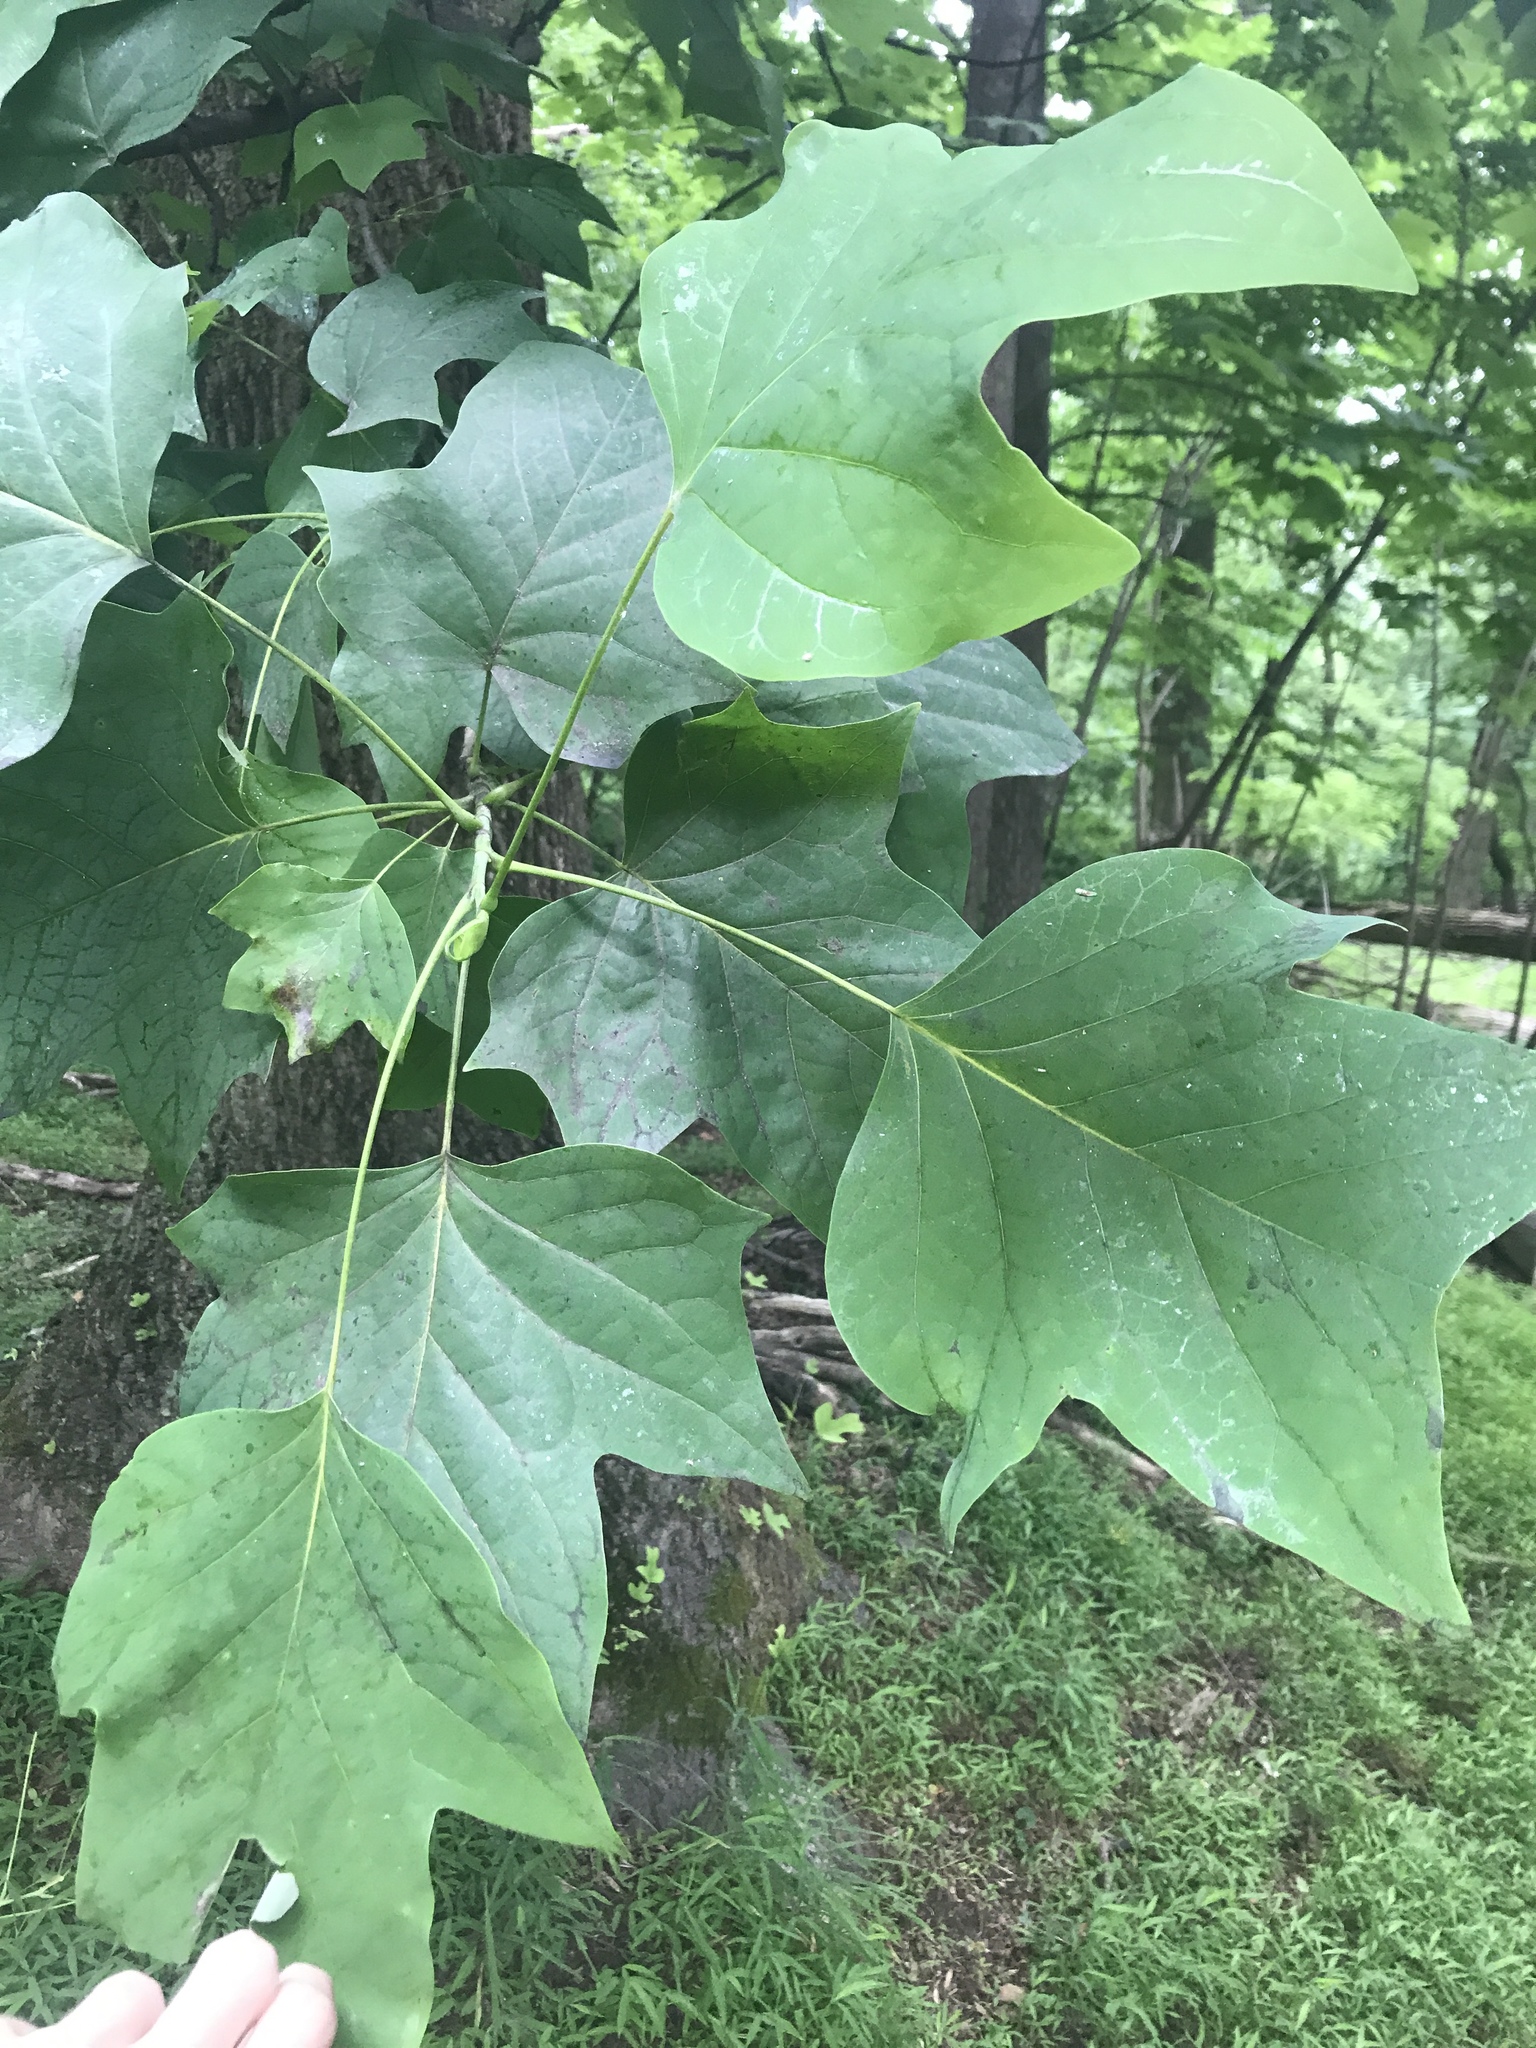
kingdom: Plantae
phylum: Tracheophyta
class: Magnoliopsida
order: Magnoliales
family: Magnoliaceae
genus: Liriodendron
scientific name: Liriodendron tulipifera
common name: Tulip tree
